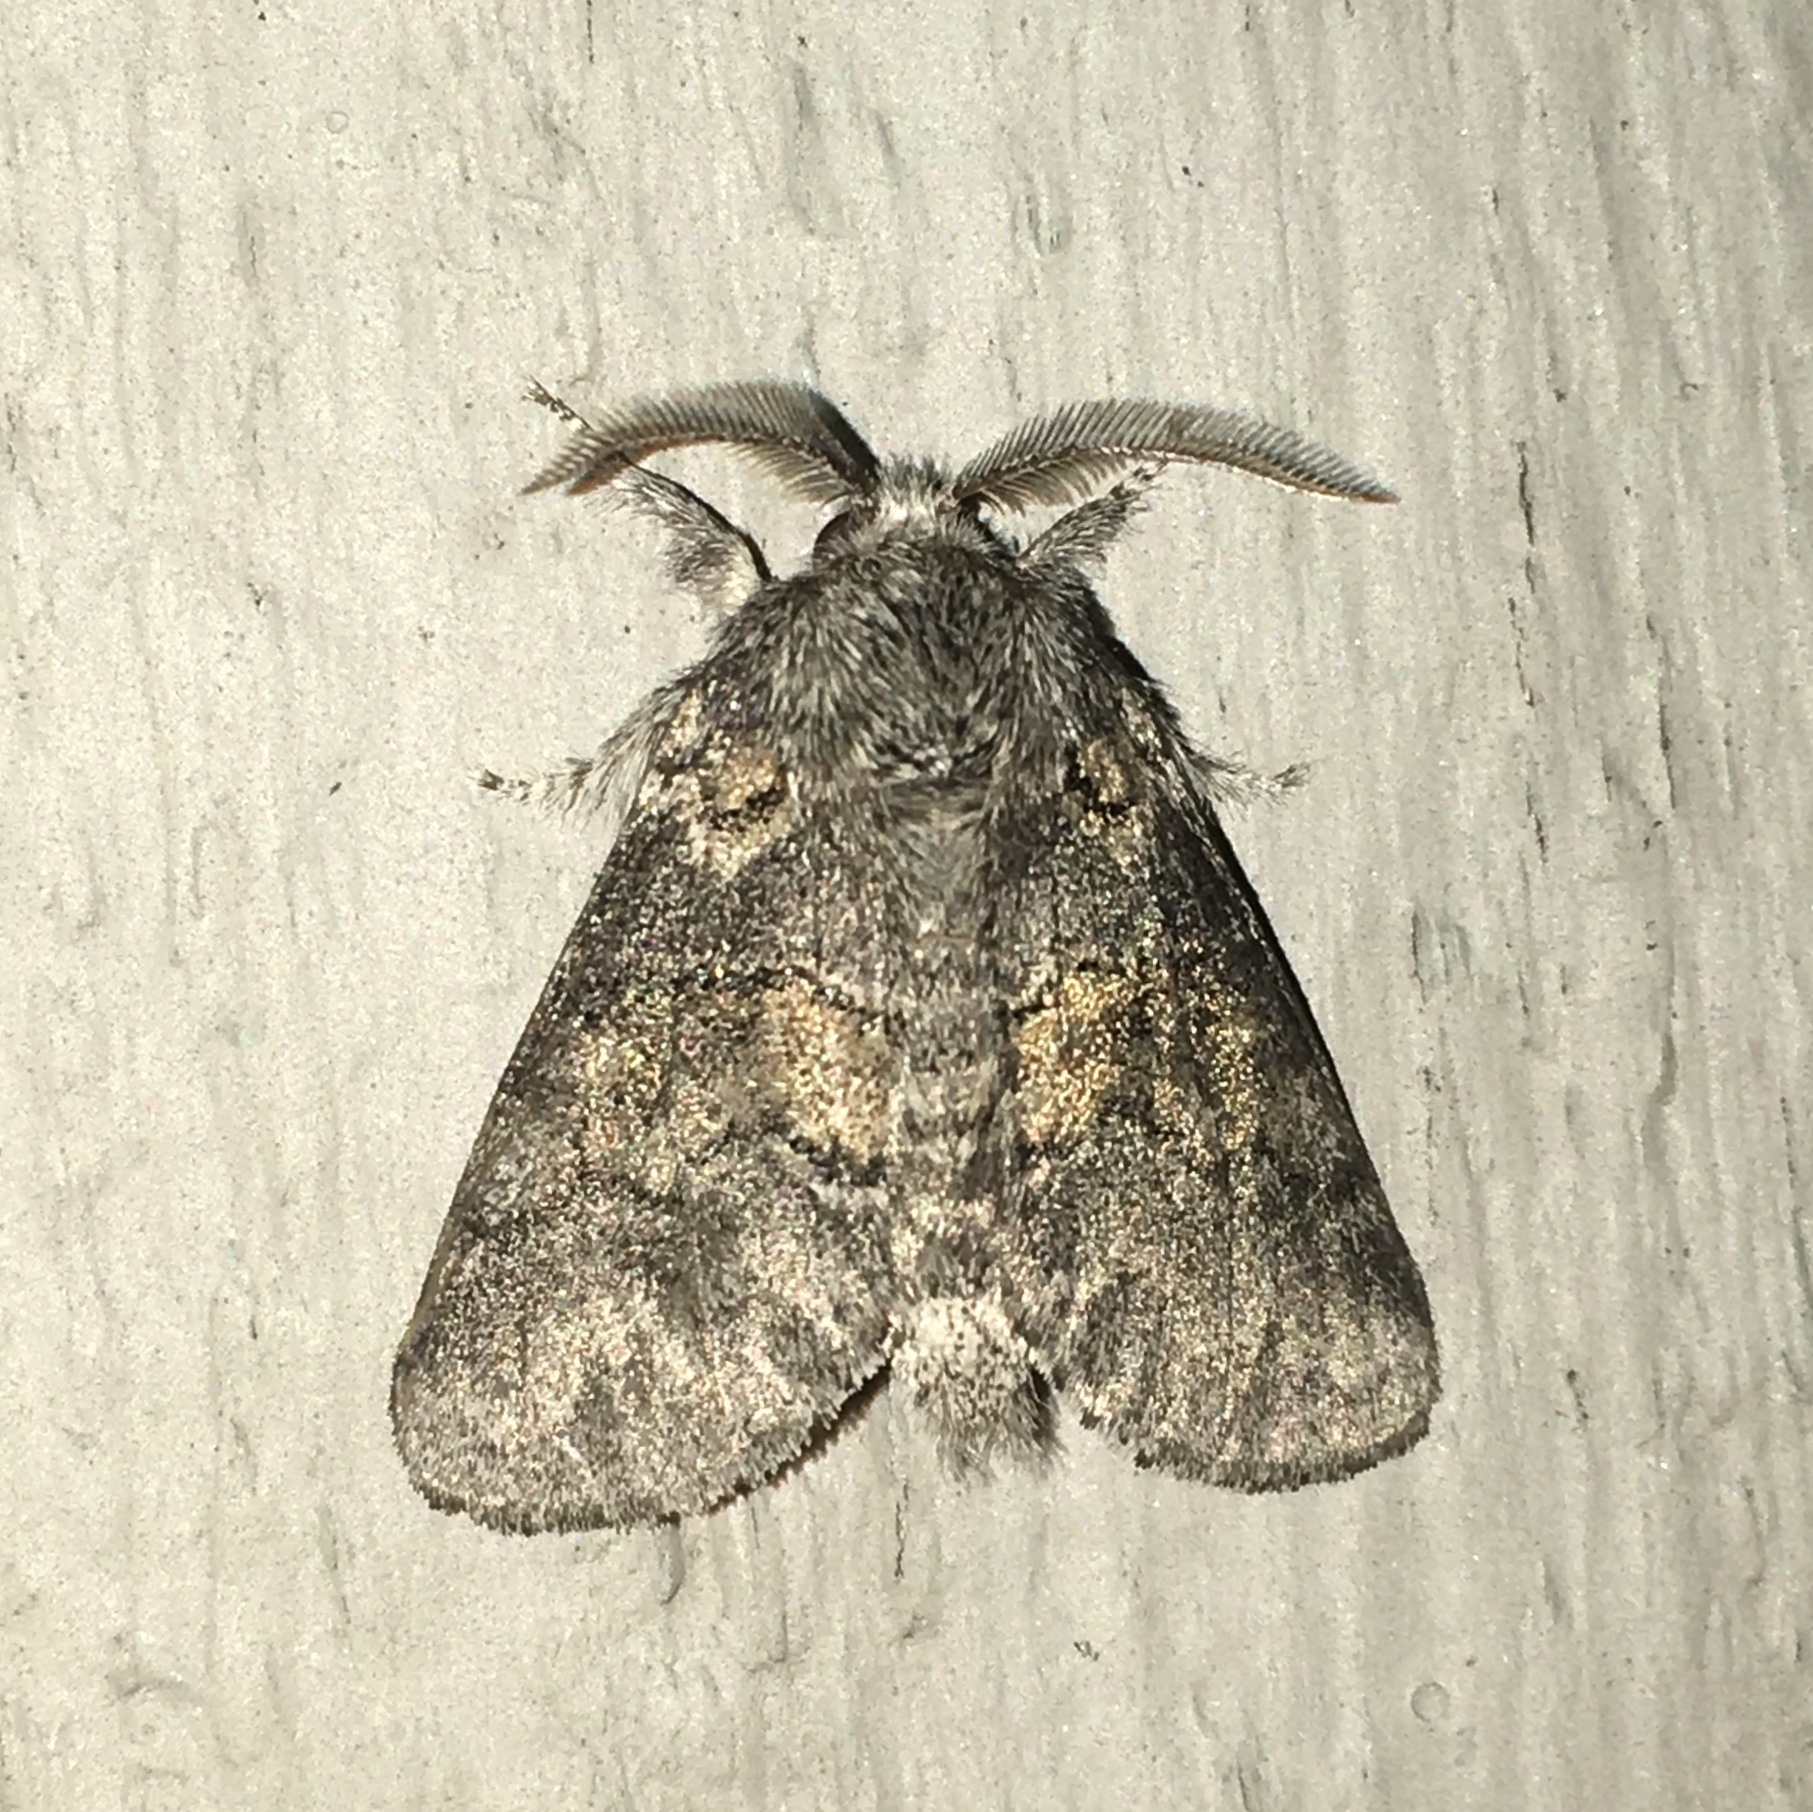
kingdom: Animalia
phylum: Arthropoda
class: Insecta
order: Lepidoptera
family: Notodontidae
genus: Gluphisia
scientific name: Gluphisia septentrionis
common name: Common gluphisia
